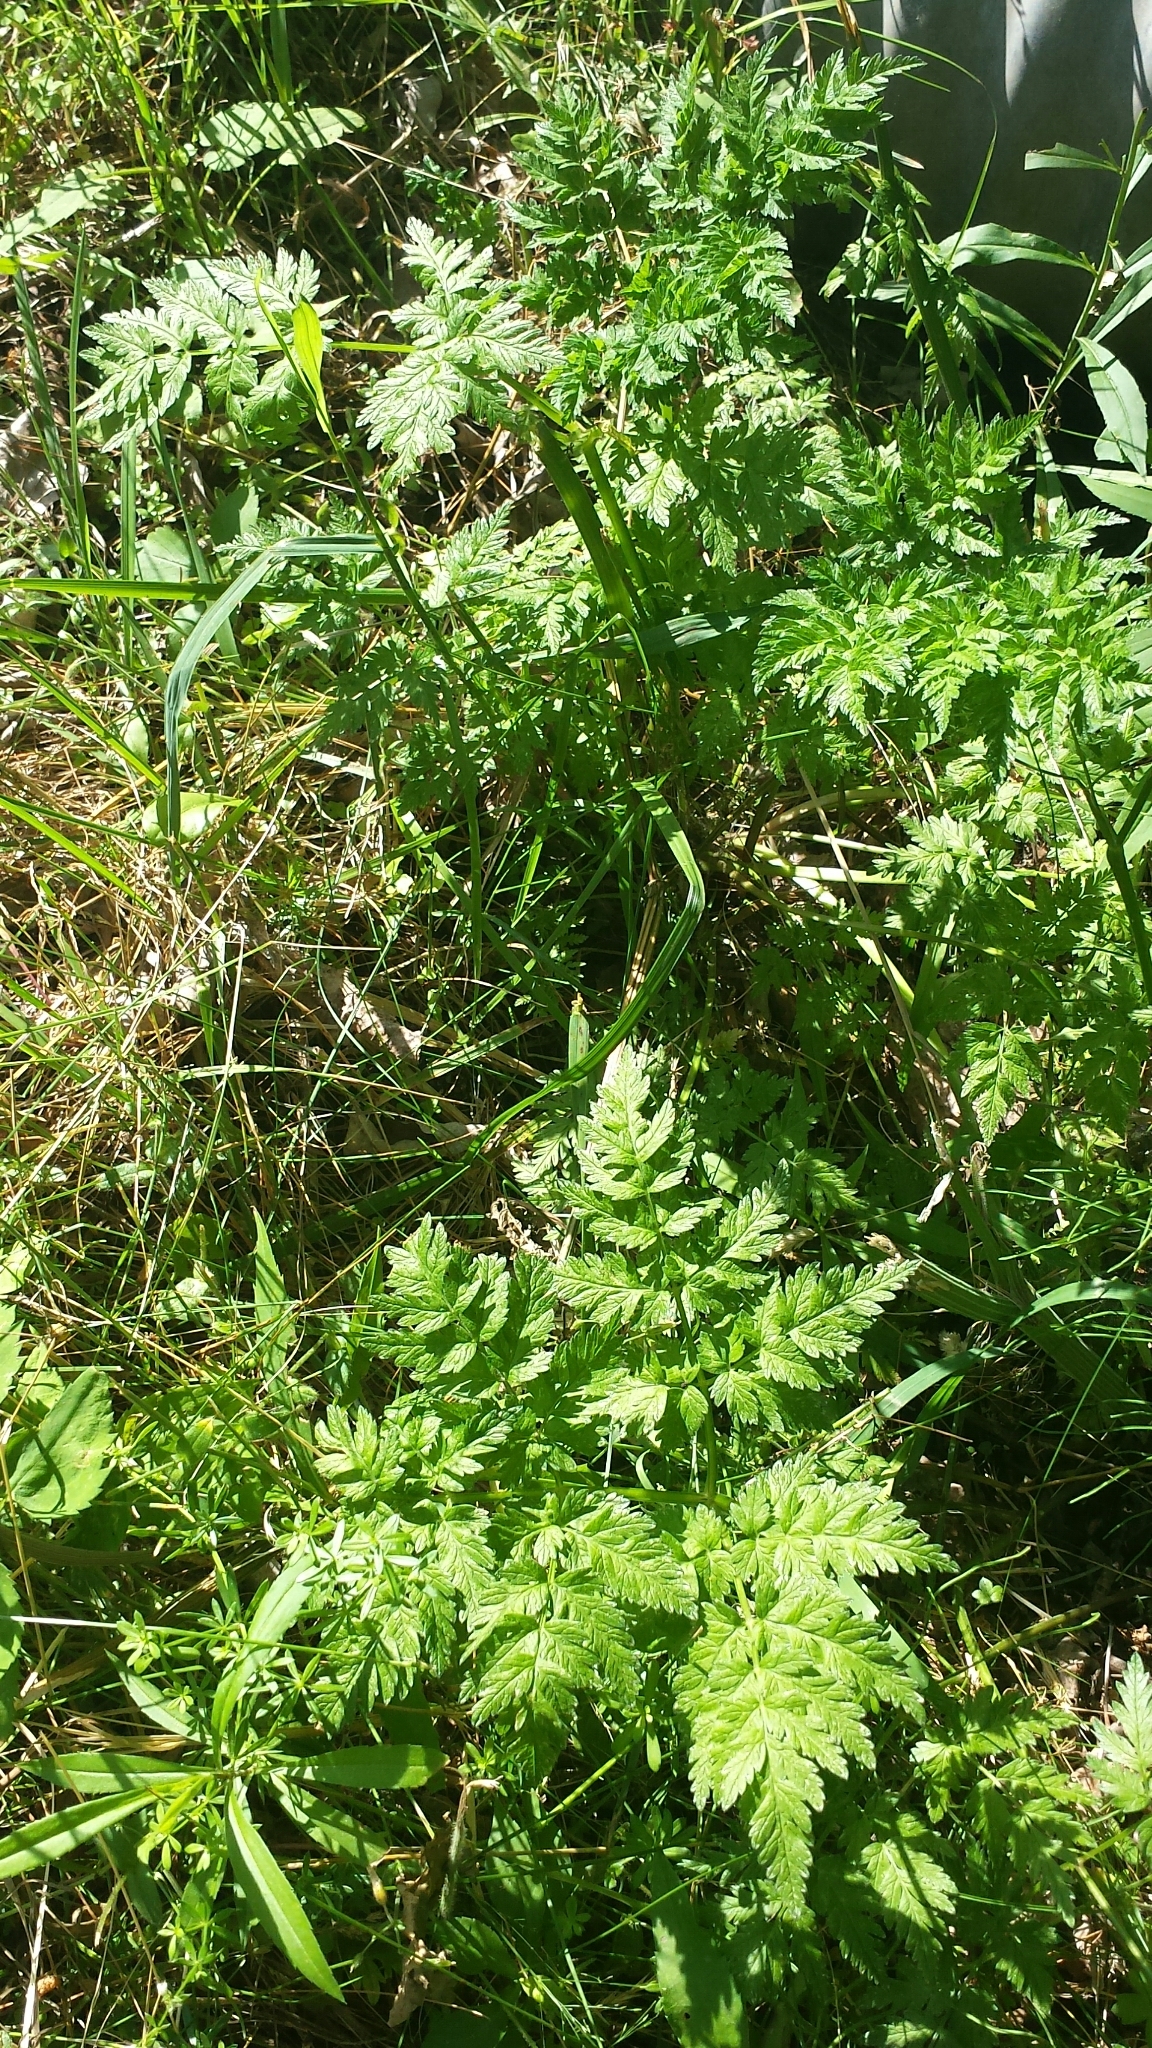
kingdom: Plantae
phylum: Tracheophyta
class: Magnoliopsida
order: Apiales
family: Apiaceae
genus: Anthriscus
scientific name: Anthriscus sylvestris
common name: Cow parsley
